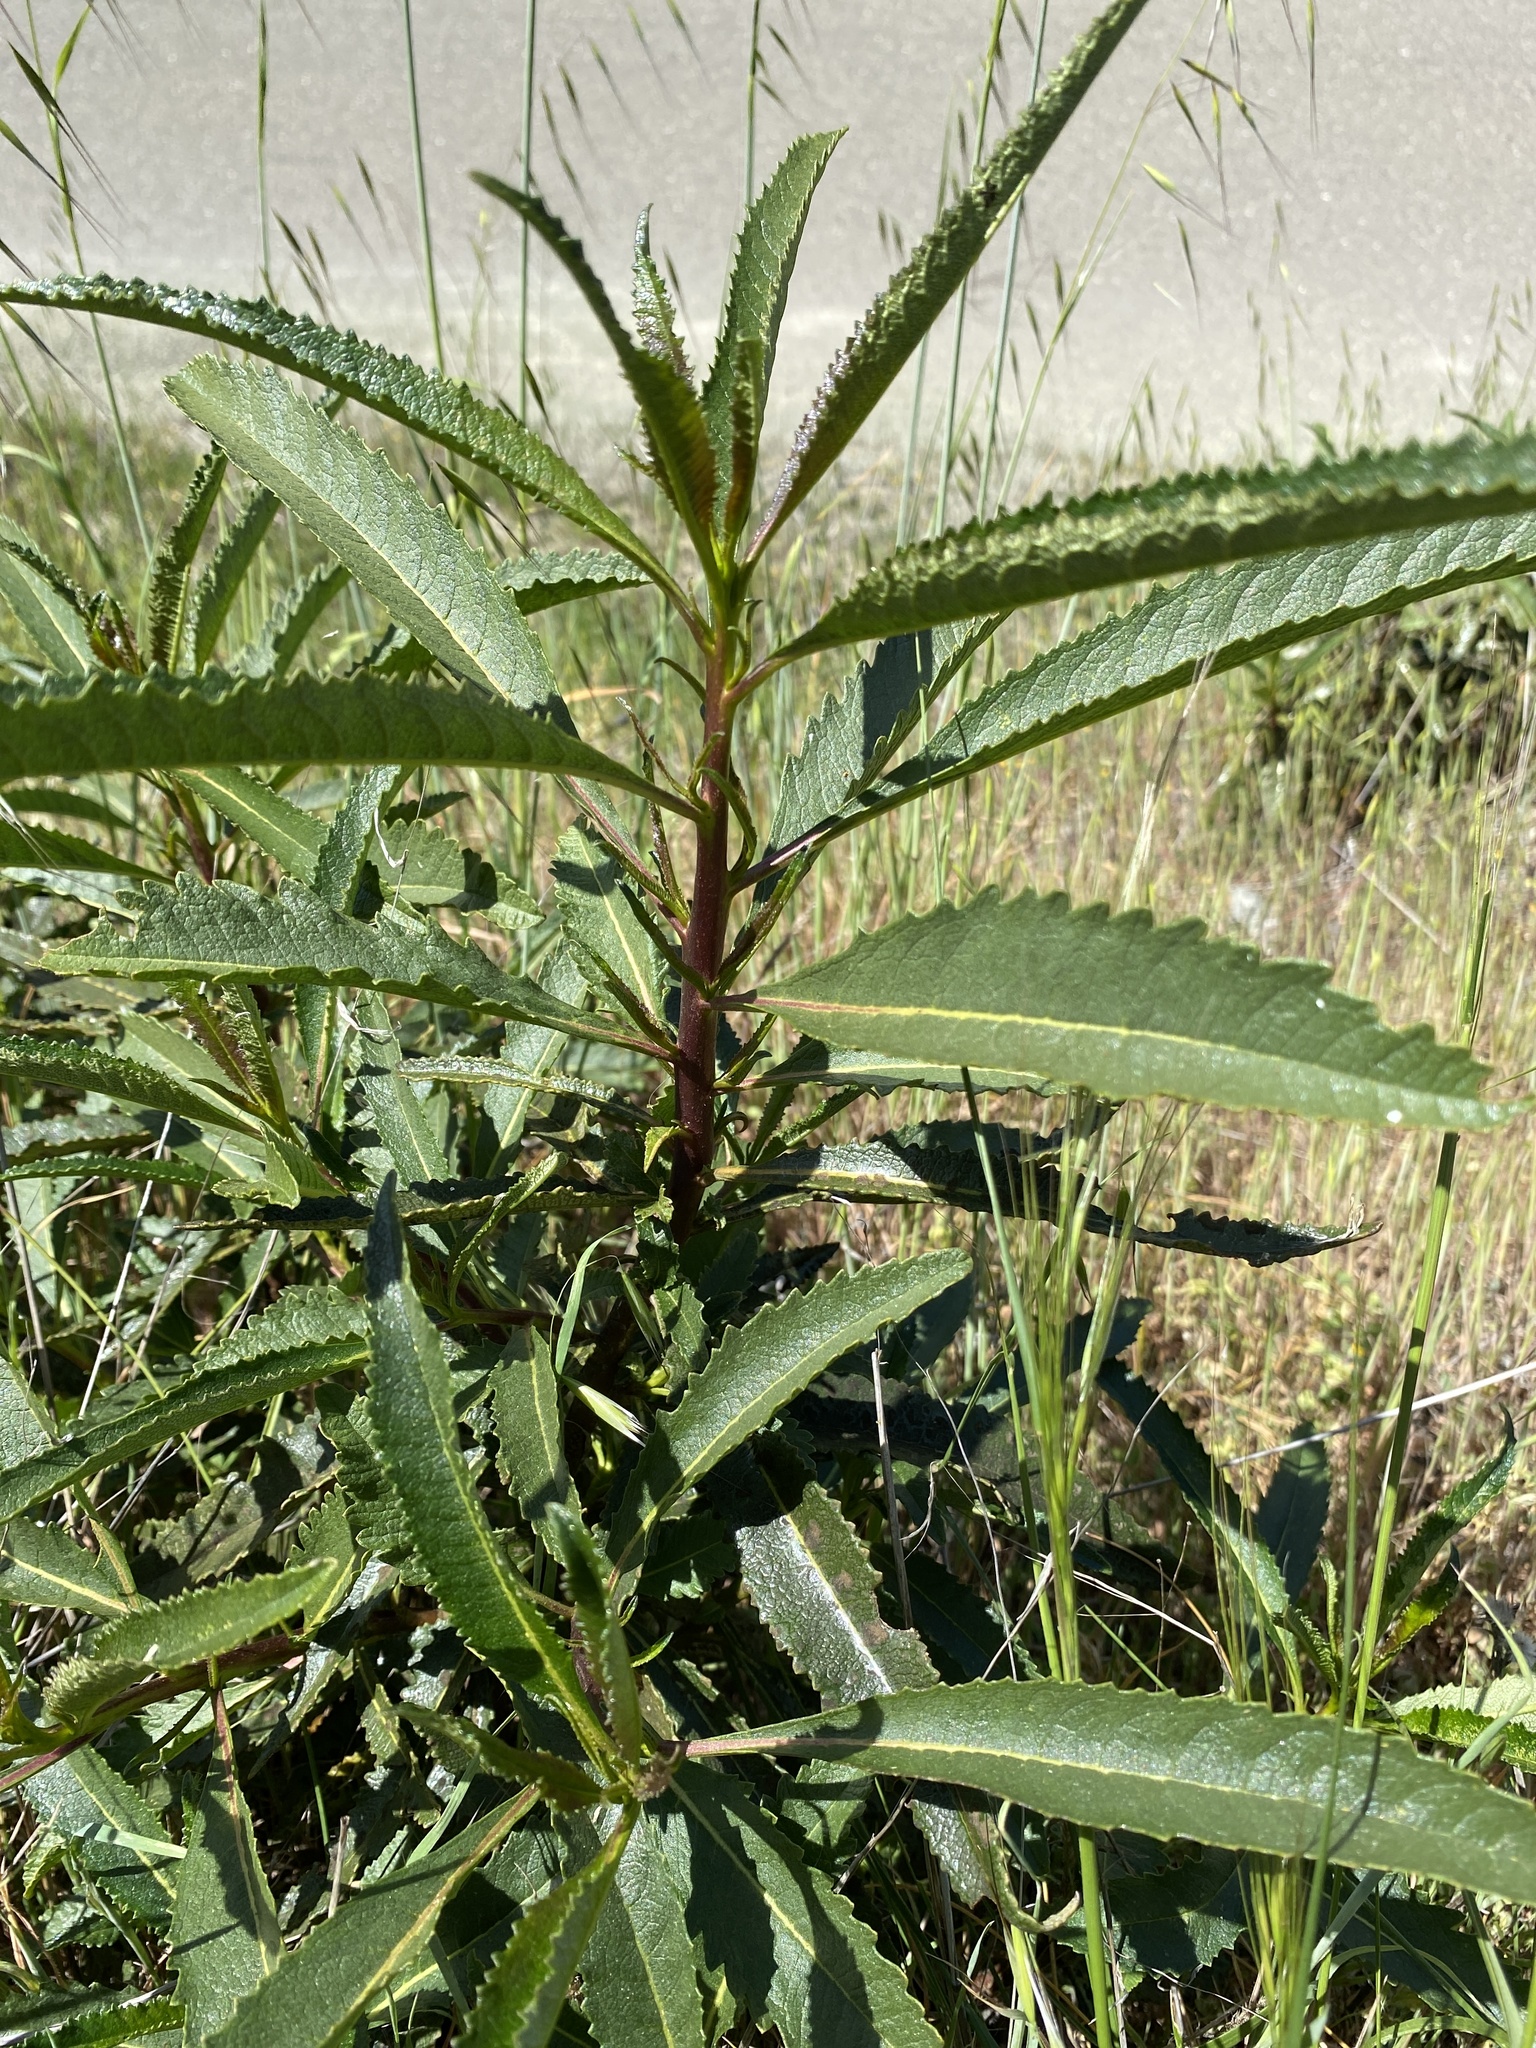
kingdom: Plantae
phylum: Tracheophyta
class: Magnoliopsida
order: Boraginales
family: Namaceae
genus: Eriodictyon
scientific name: Eriodictyon californicum
